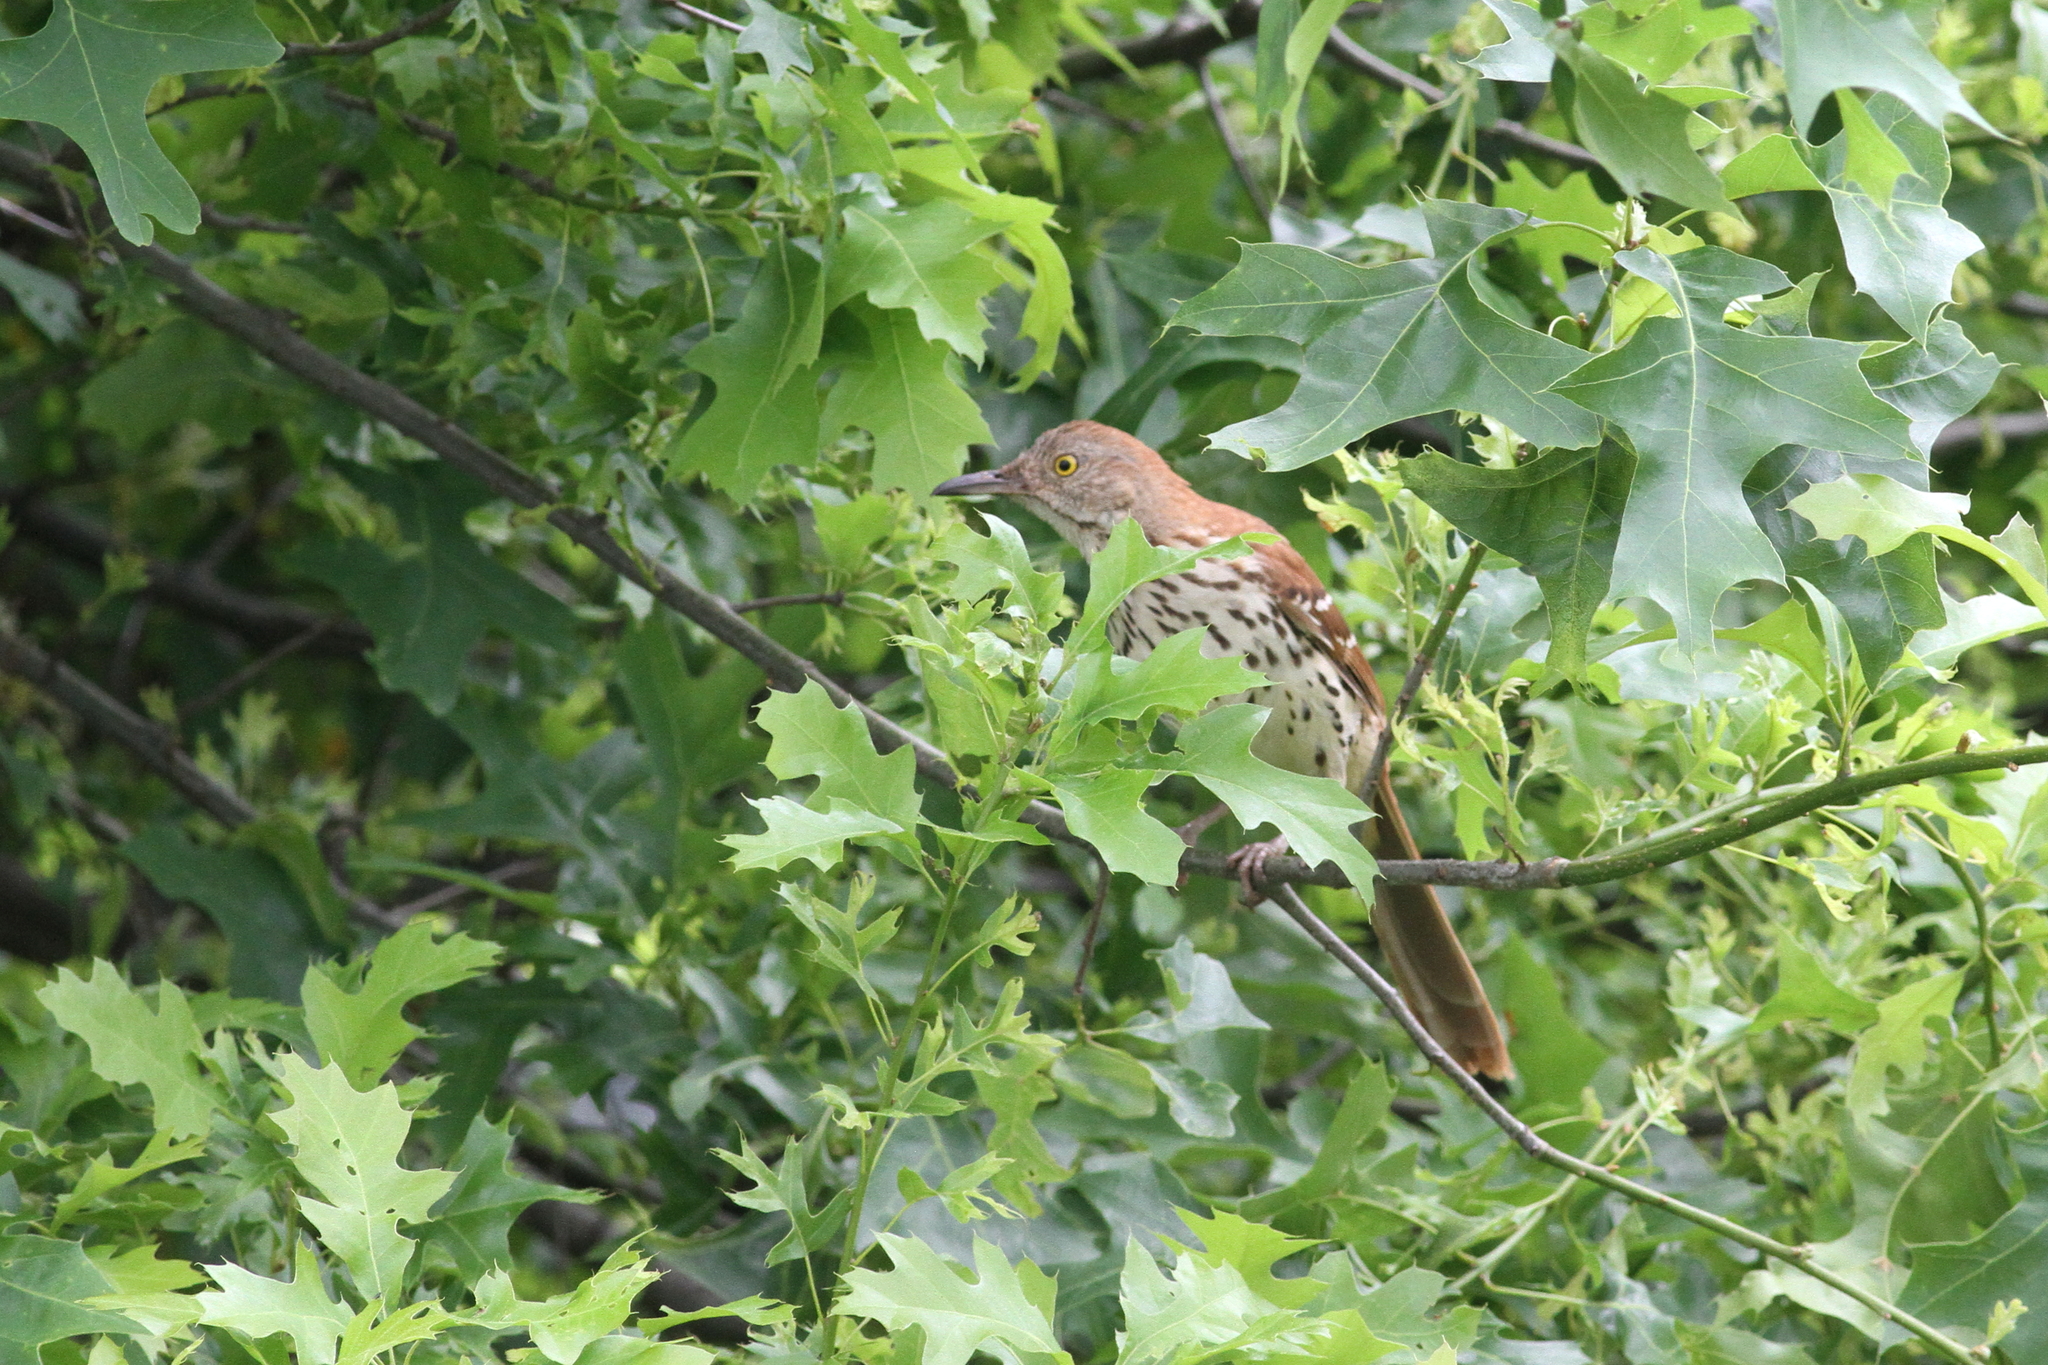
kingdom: Animalia
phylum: Chordata
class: Aves
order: Passeriformes
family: Mimidae
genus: Toxostoma
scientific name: Toxostoma rufum
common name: Brown thrasher
